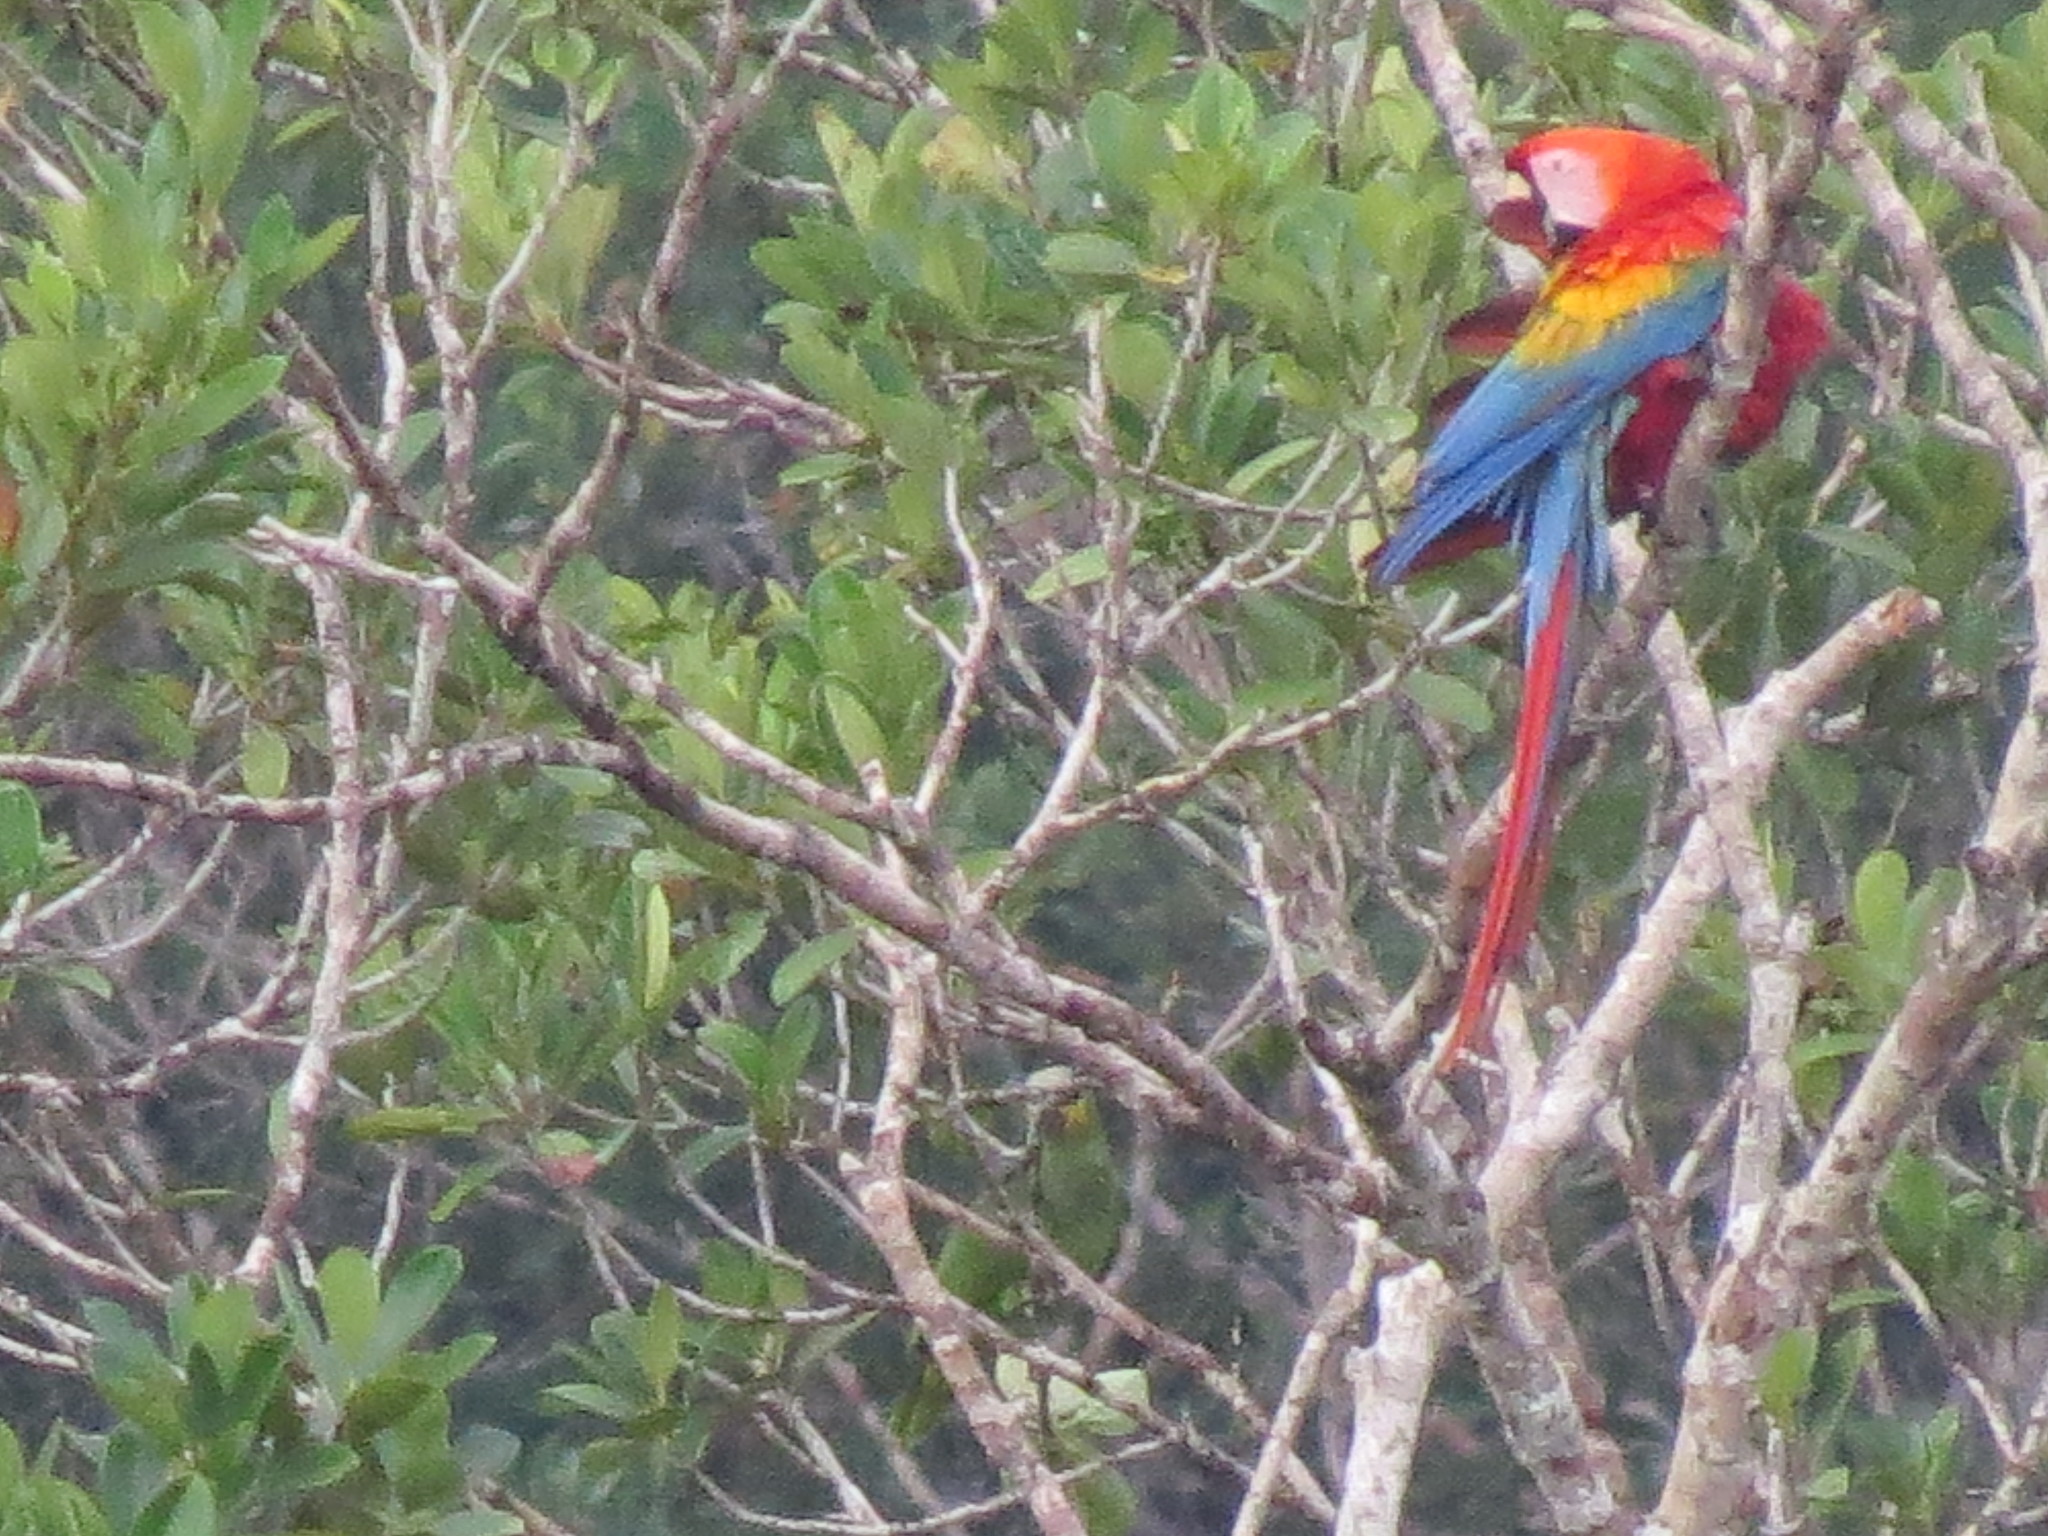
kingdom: Animalia
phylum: Chordata
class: Aves
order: Psittaciformes
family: Psittacidae
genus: Ara
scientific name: Ara macao
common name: Scarlet macaw
